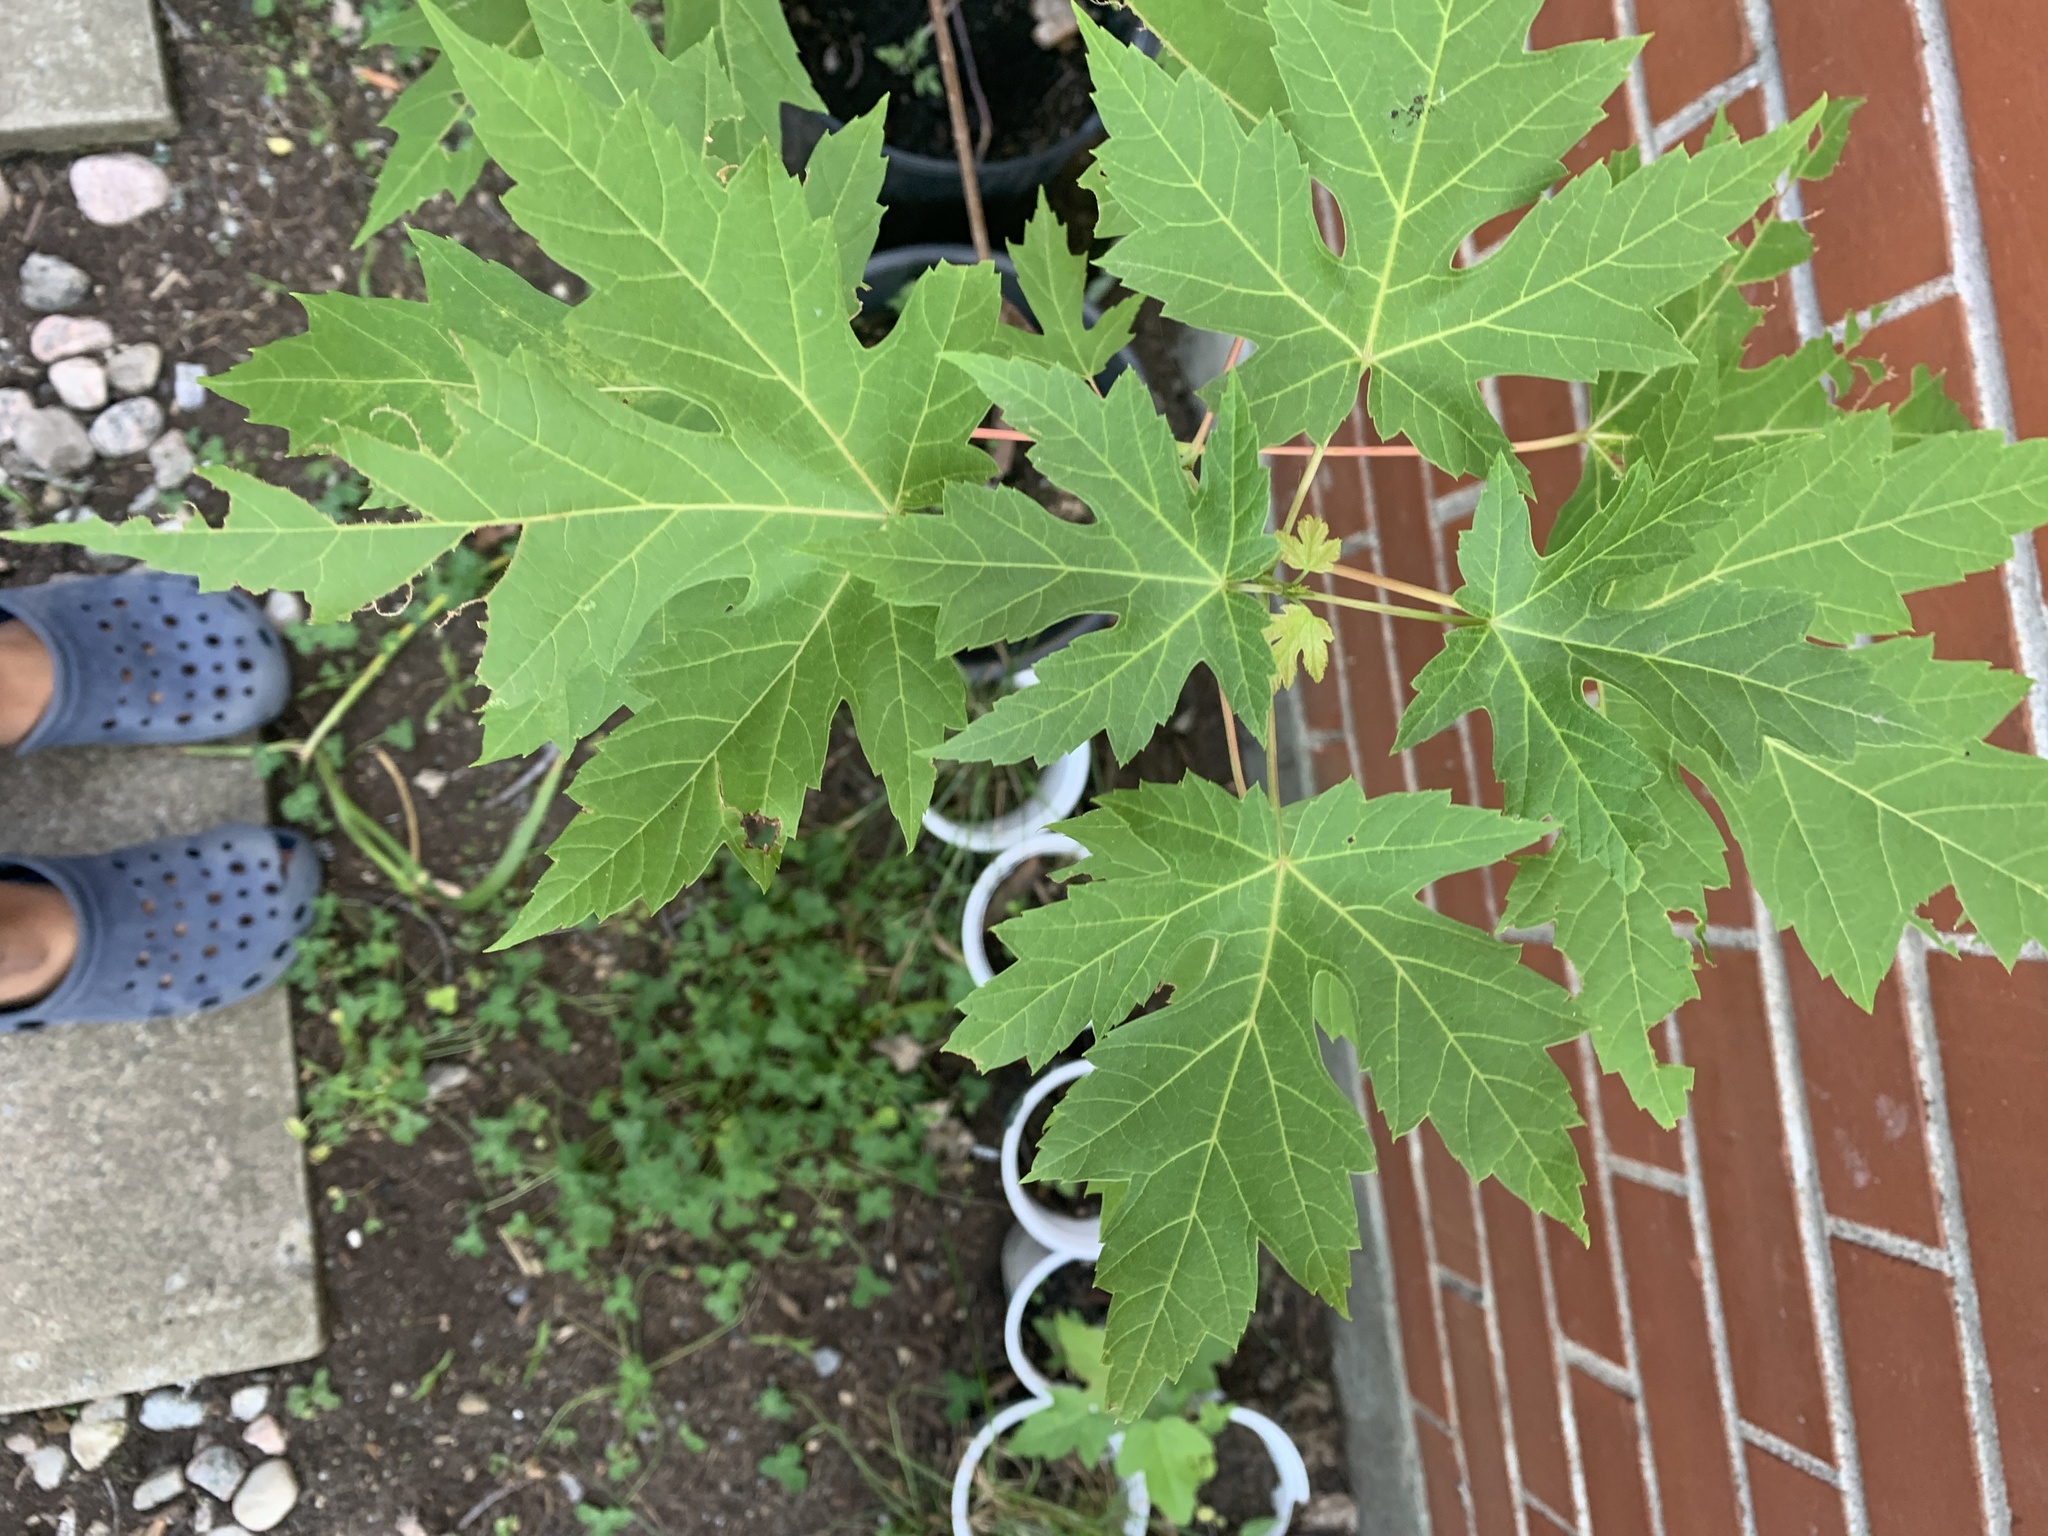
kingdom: Plantae
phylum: Tracheophyta
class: Magnoliopsida
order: Sapindales
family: Sapindaceae
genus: Acer
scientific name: Acer saccharinum
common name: Silver maple
